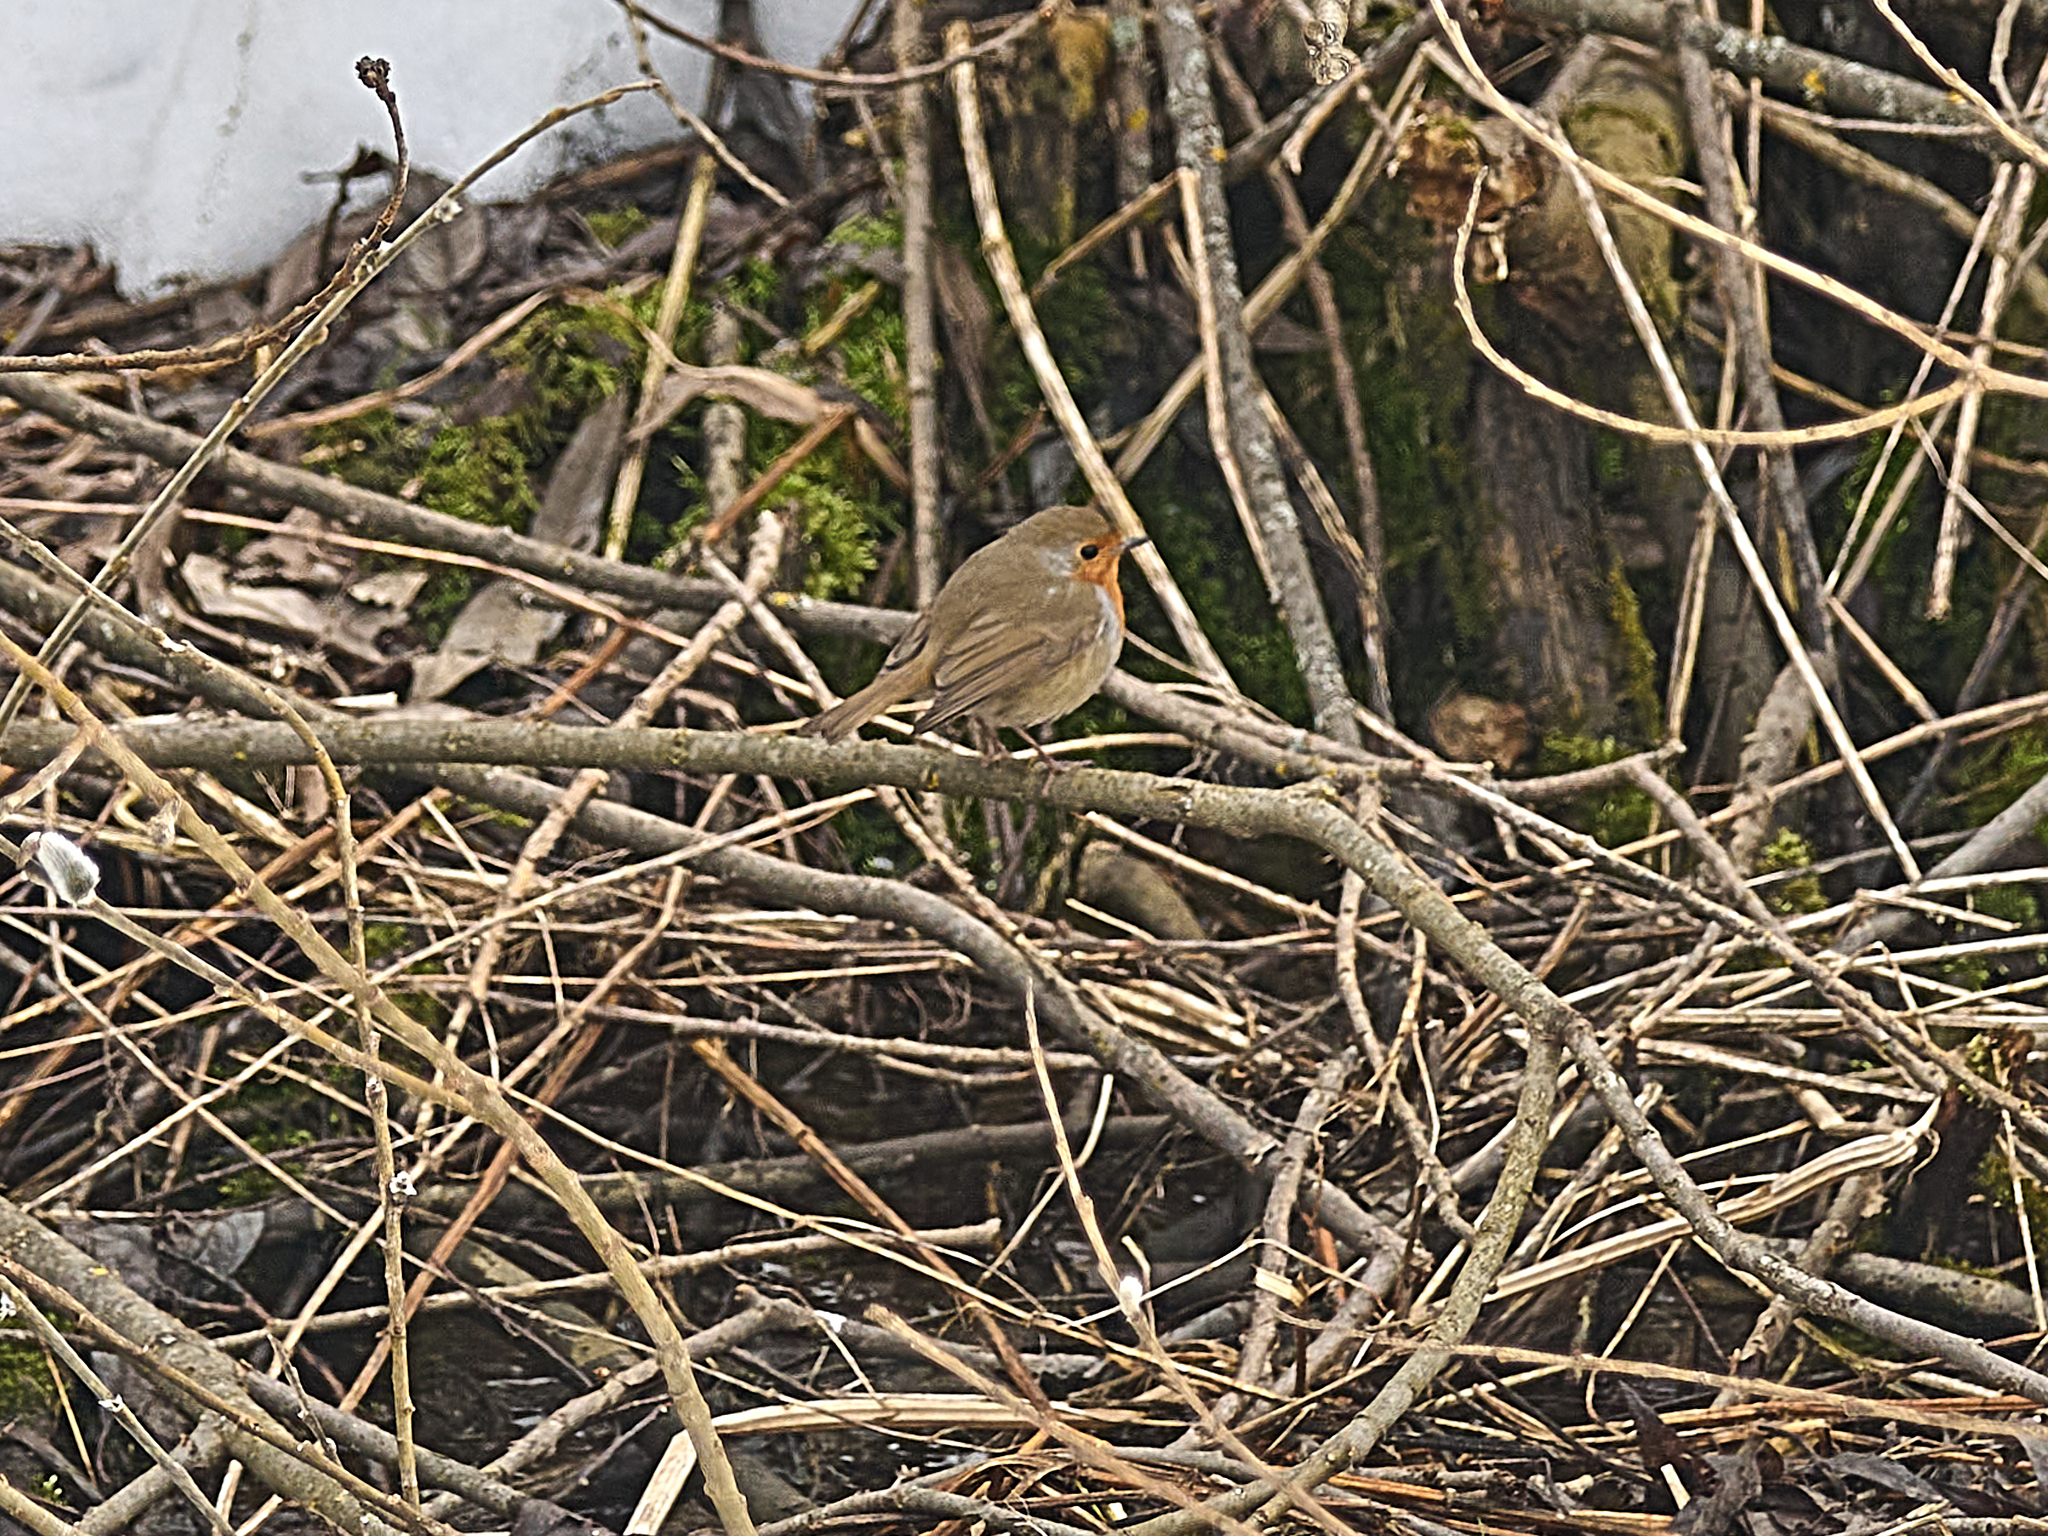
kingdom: Animalia
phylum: Chordata
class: Aves
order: Passeriformes
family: Muscicapidae
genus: Erithacus
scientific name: Erithacus rubecula
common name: European robin
